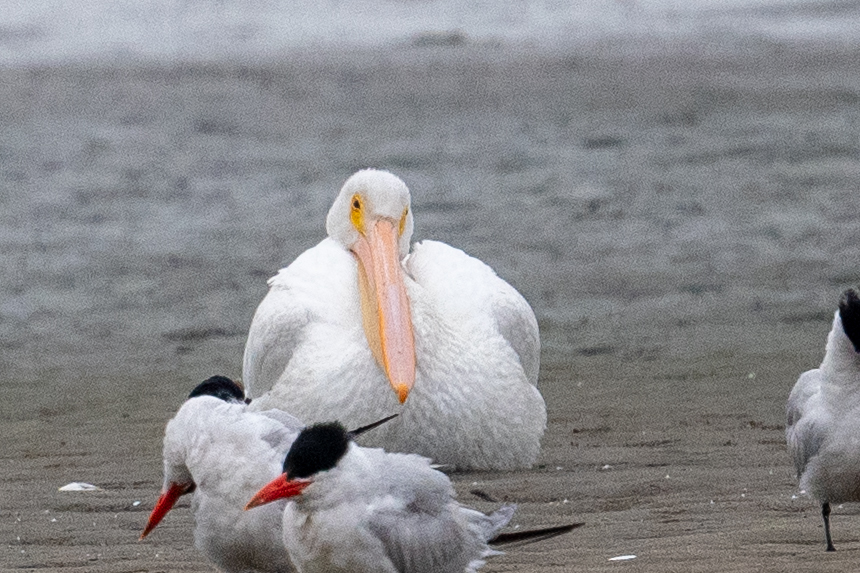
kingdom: Animalia
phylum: Chordata
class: Aves
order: Pelecaniformes
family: Pelecanidae
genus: Pelecanus
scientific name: Pelecanus erythrorhynchos
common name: American white pelican
